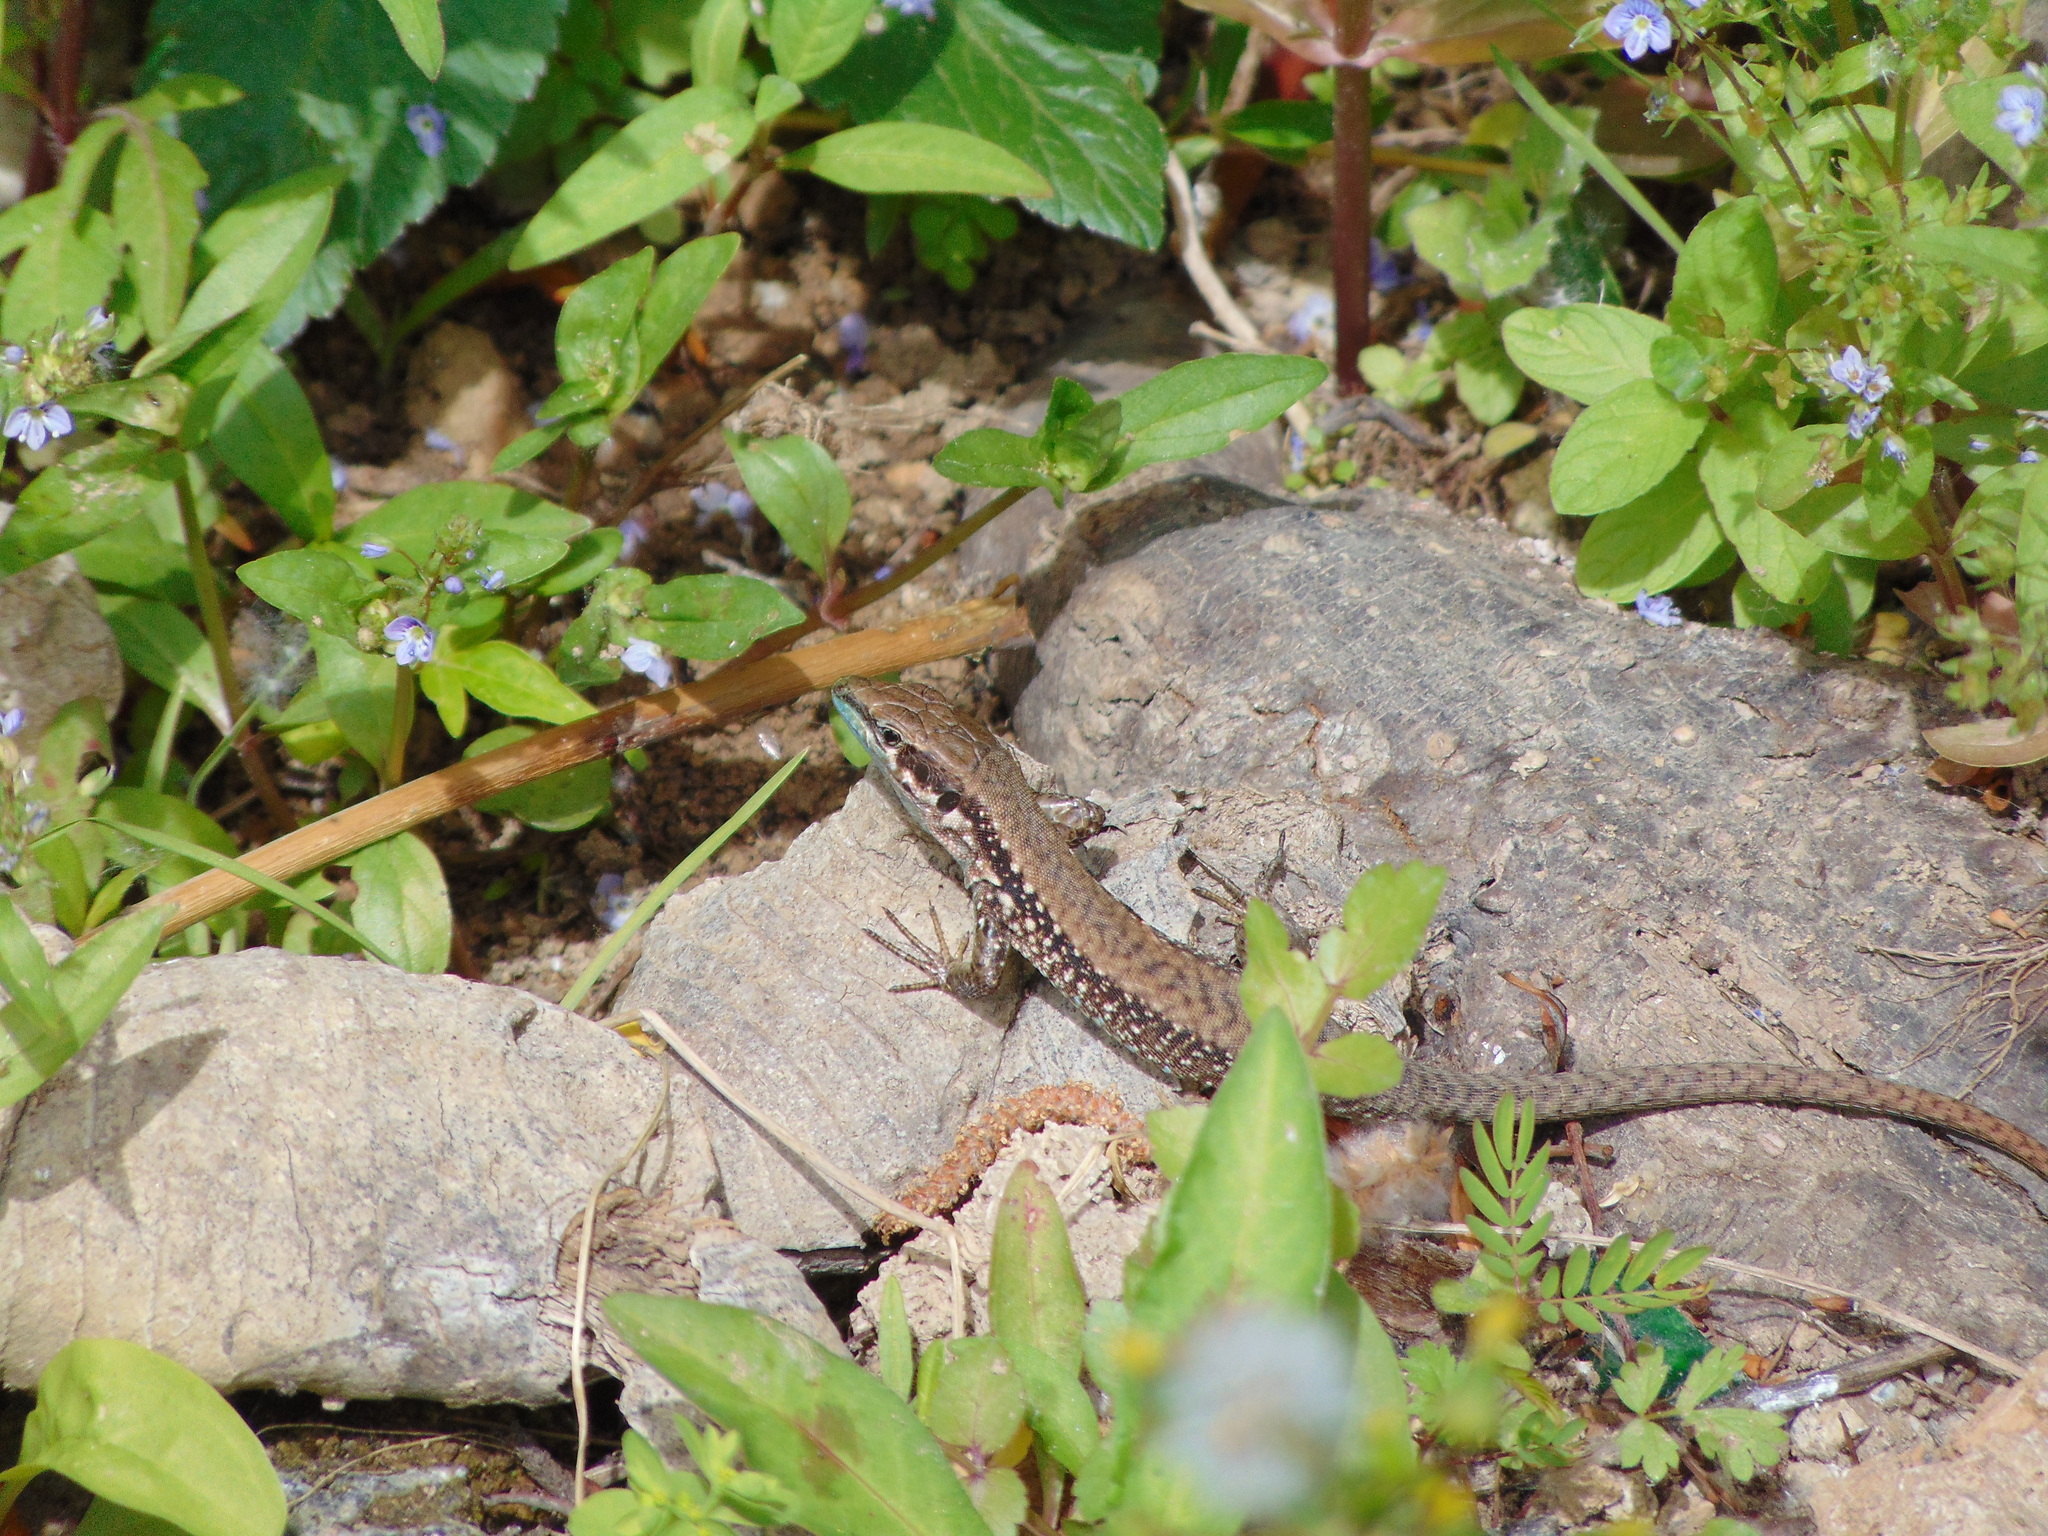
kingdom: Animalia
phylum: Chordata
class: Squamata
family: Lacertidae
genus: Phoenicolacerta
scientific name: Phoenicolacerta laevis
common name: Lebanon lizard
